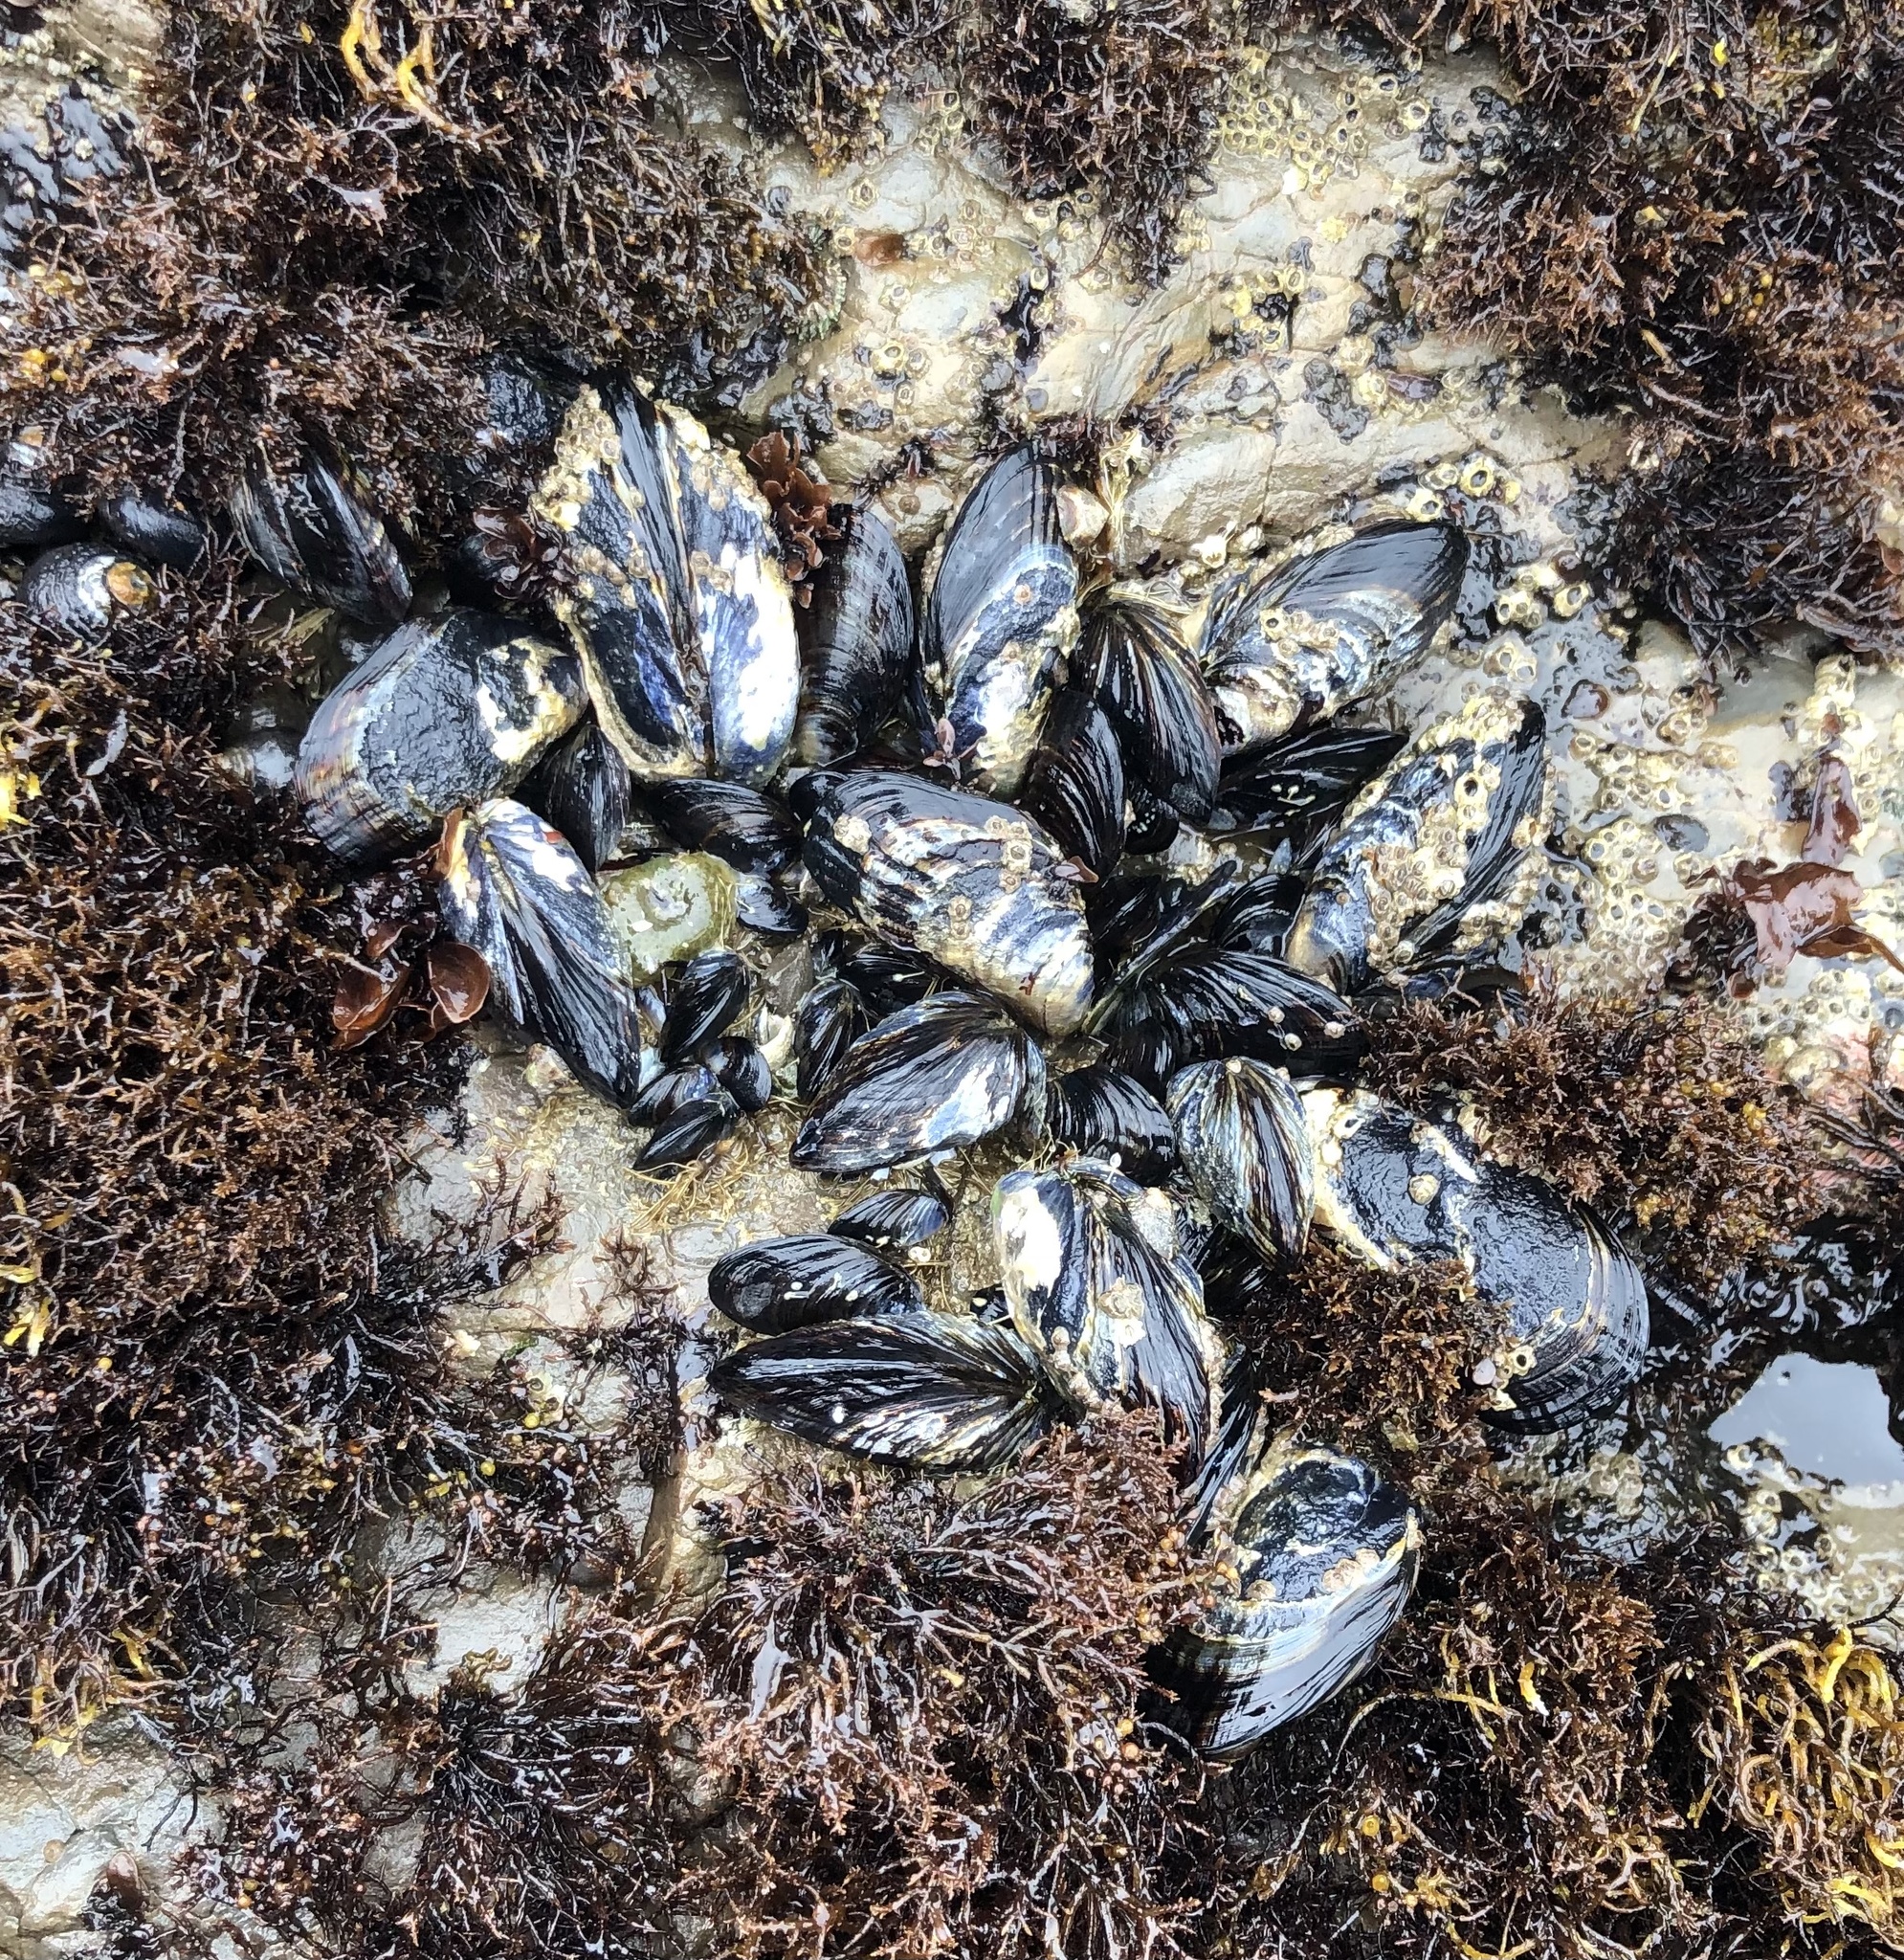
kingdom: Animalia
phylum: Mollusca
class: Bivalvia
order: Mytilida
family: Mytilidae
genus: Mytilus
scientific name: Mytilus californianus
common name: California mussel
